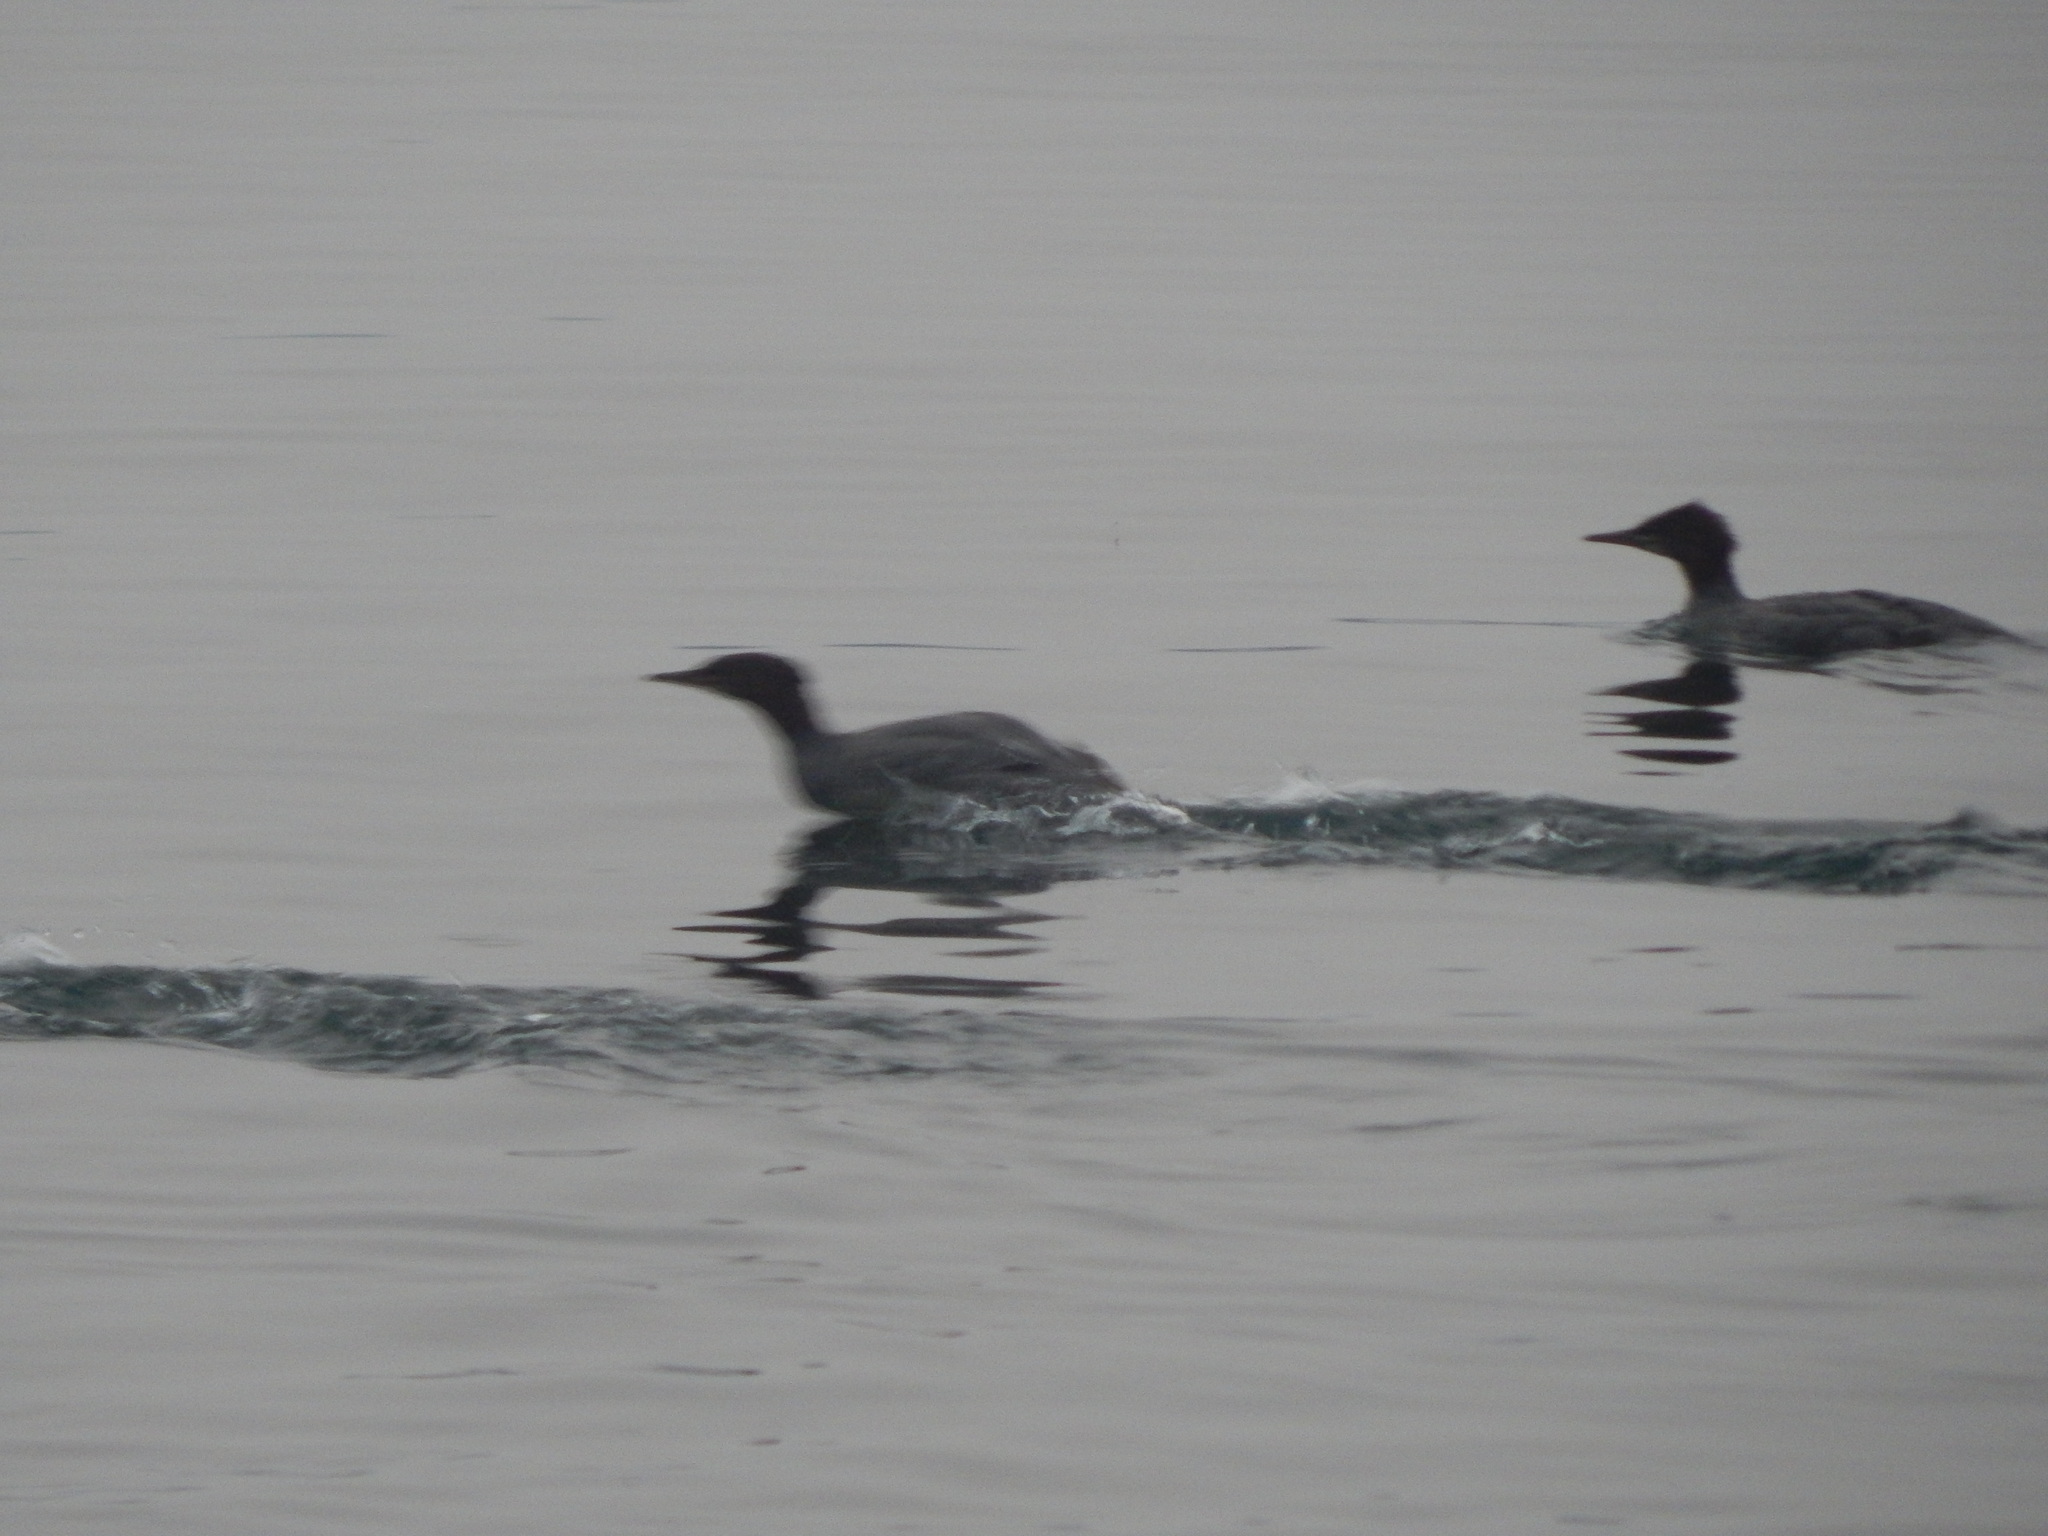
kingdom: Animalia
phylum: Chordata
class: Aves
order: Anseriformes
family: Anatidae
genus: Mergus
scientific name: Mergus merganser
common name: Common merganser
